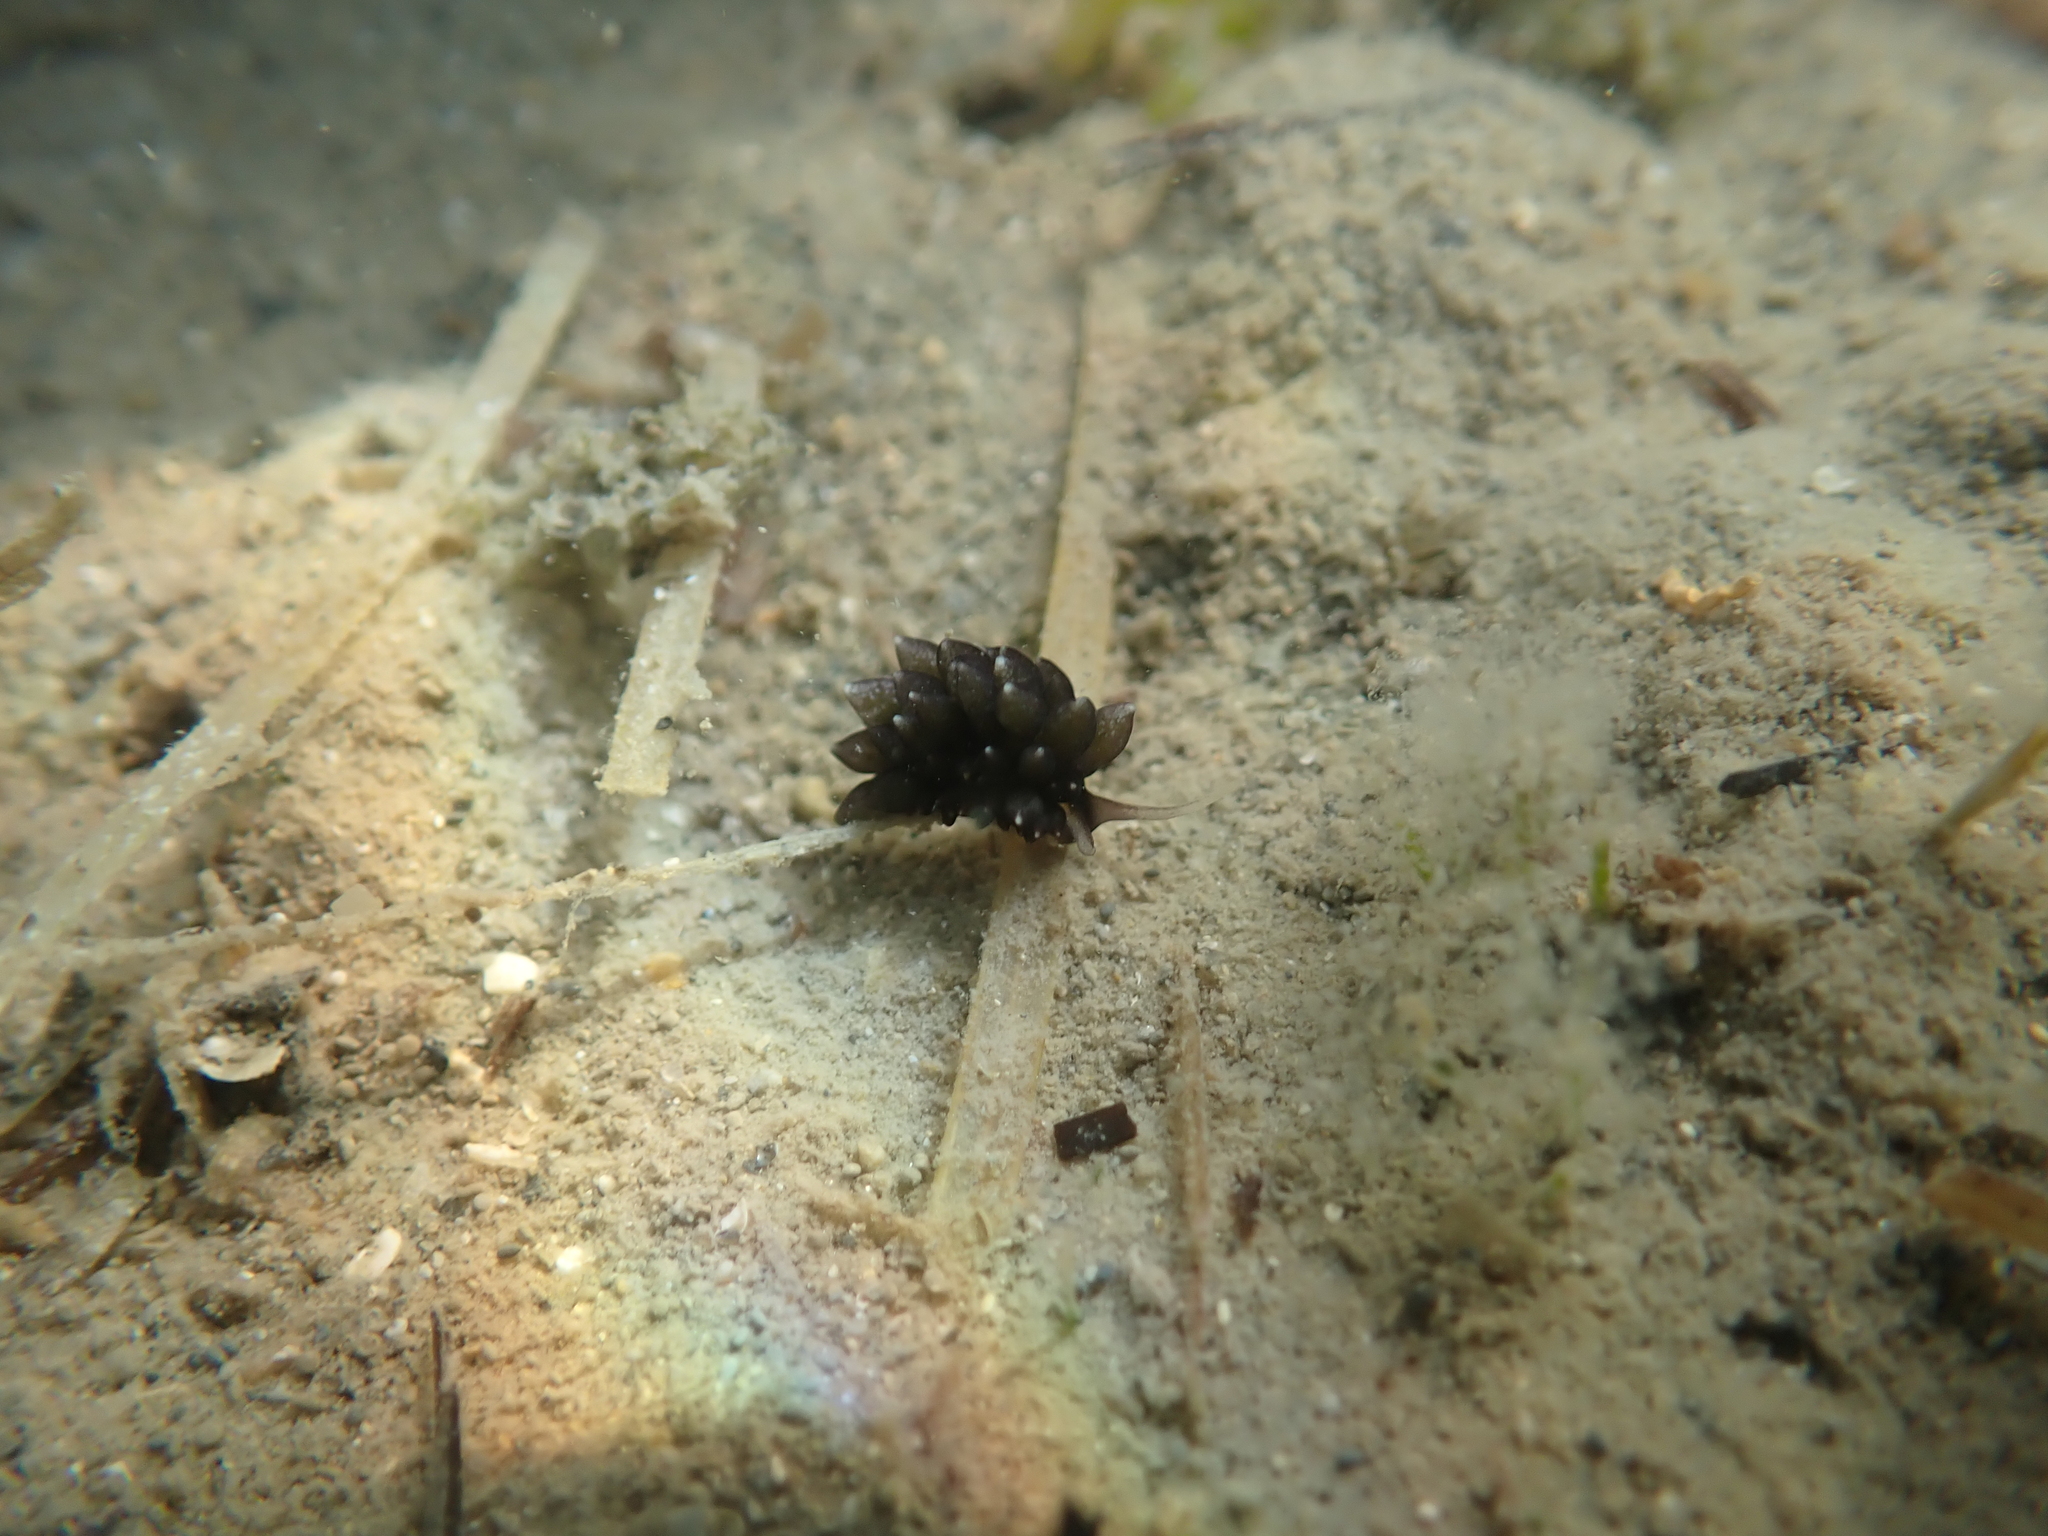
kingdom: Animalia
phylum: Mollusca
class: Gastropoda
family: Limapontiidae
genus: Ercolania
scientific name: Ercolania viridis
